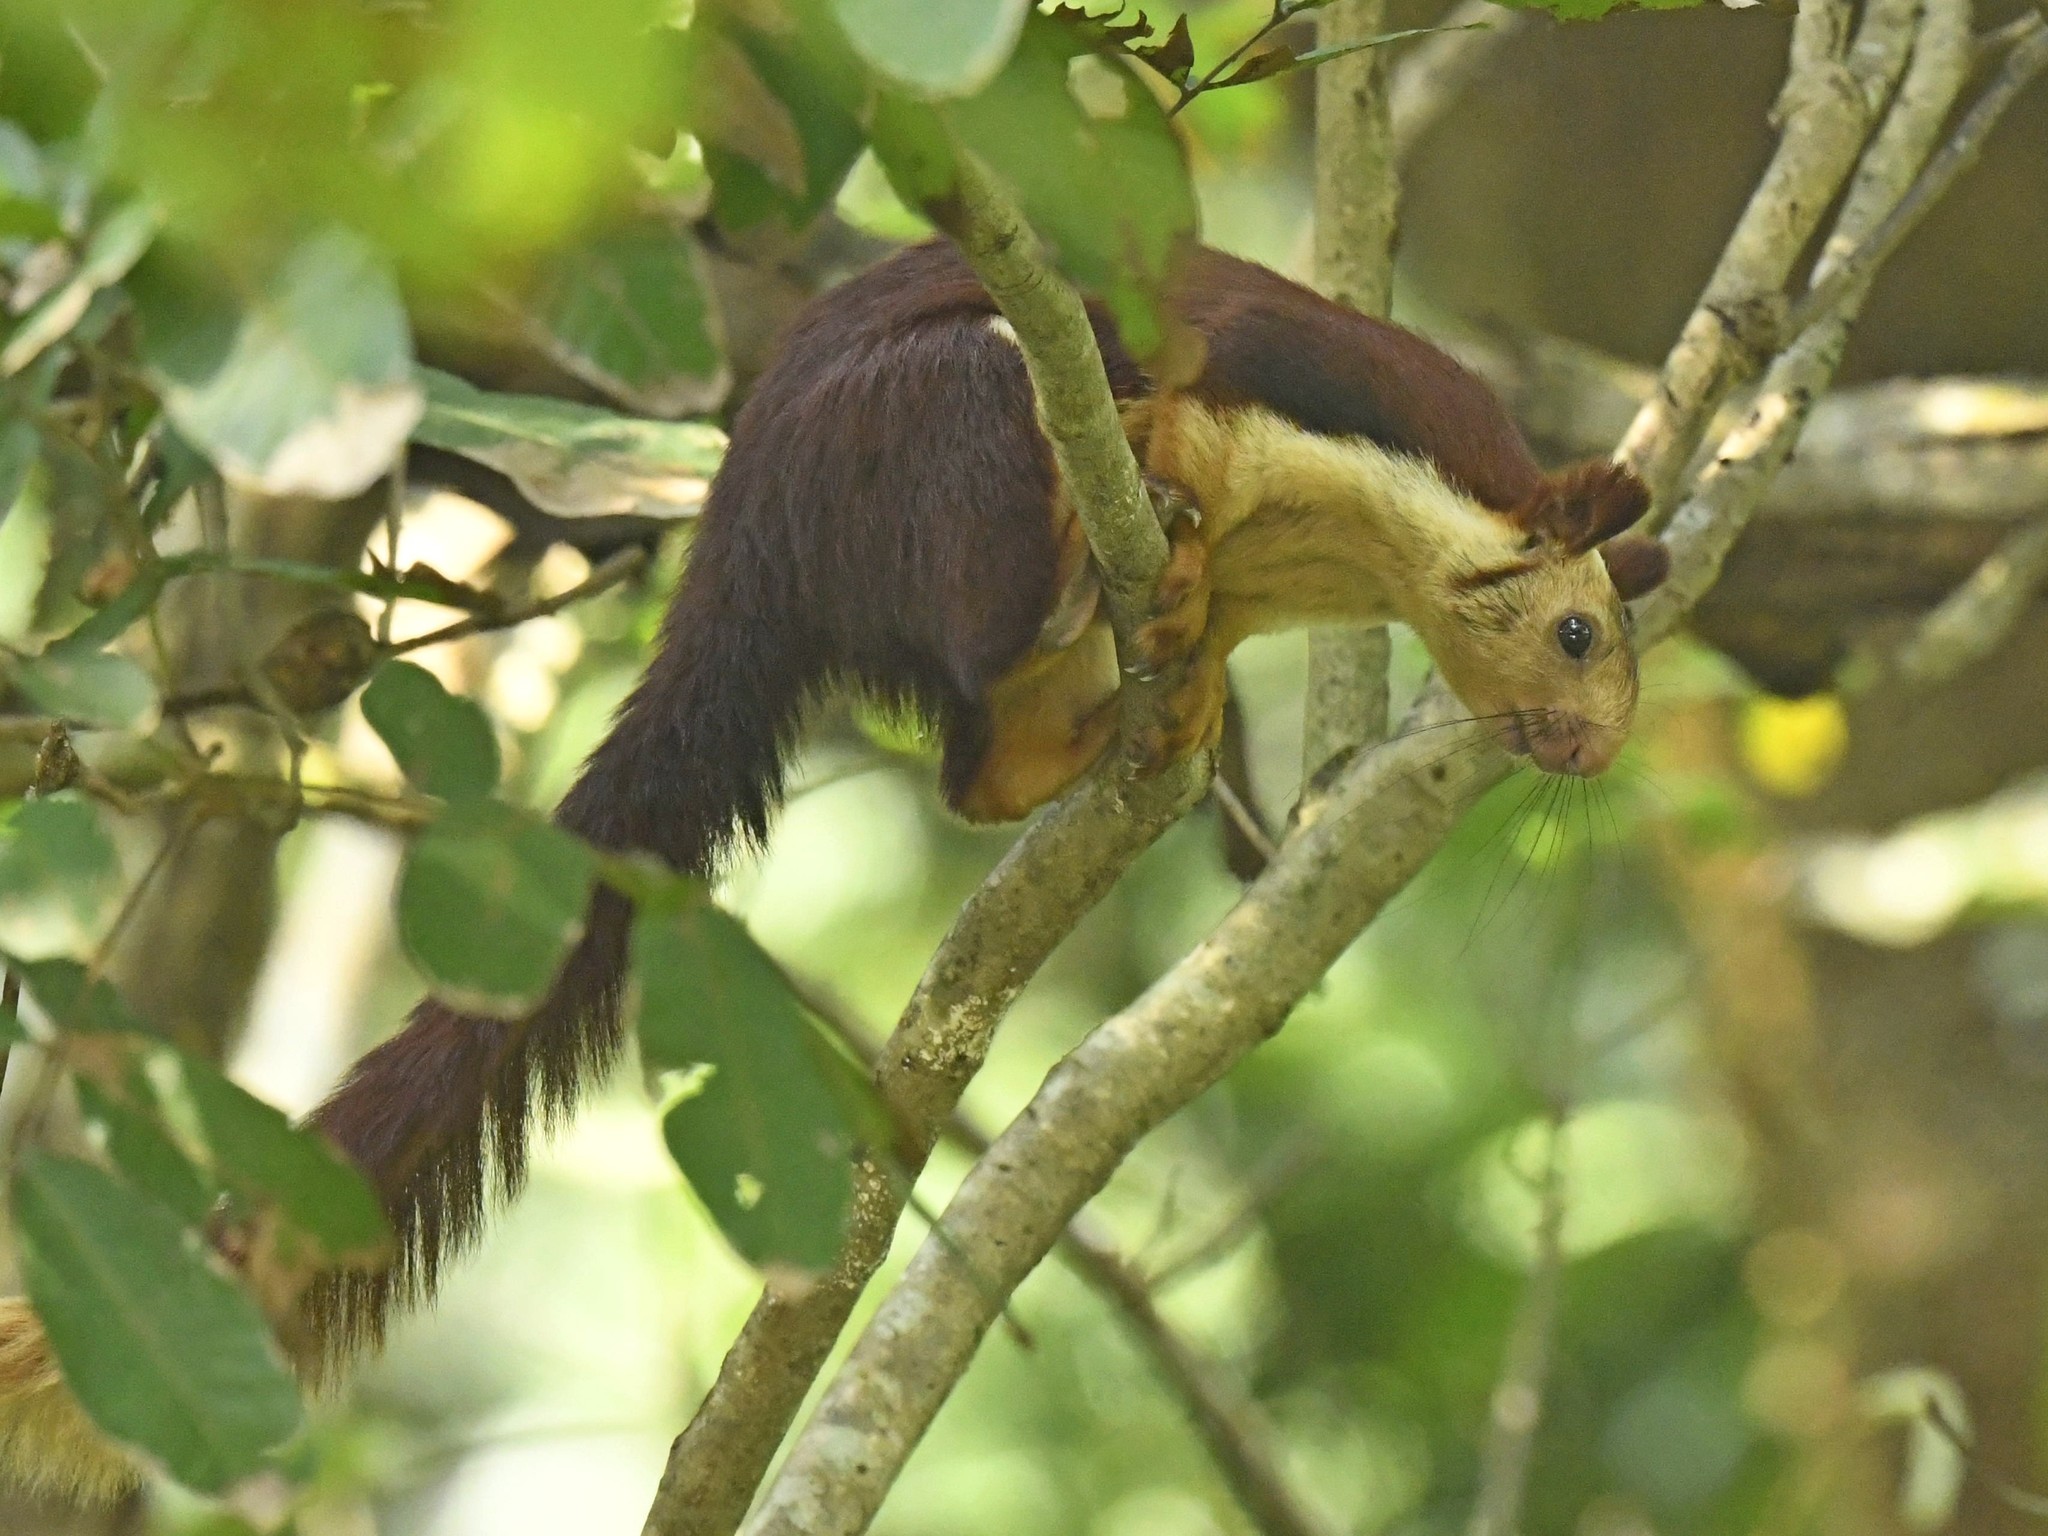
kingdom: Animalia
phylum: Chordata
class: Mammalia
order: Rodentia
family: Sciuridae
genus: Ratufa
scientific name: Ratufa indica
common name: Indian giant squirrel
